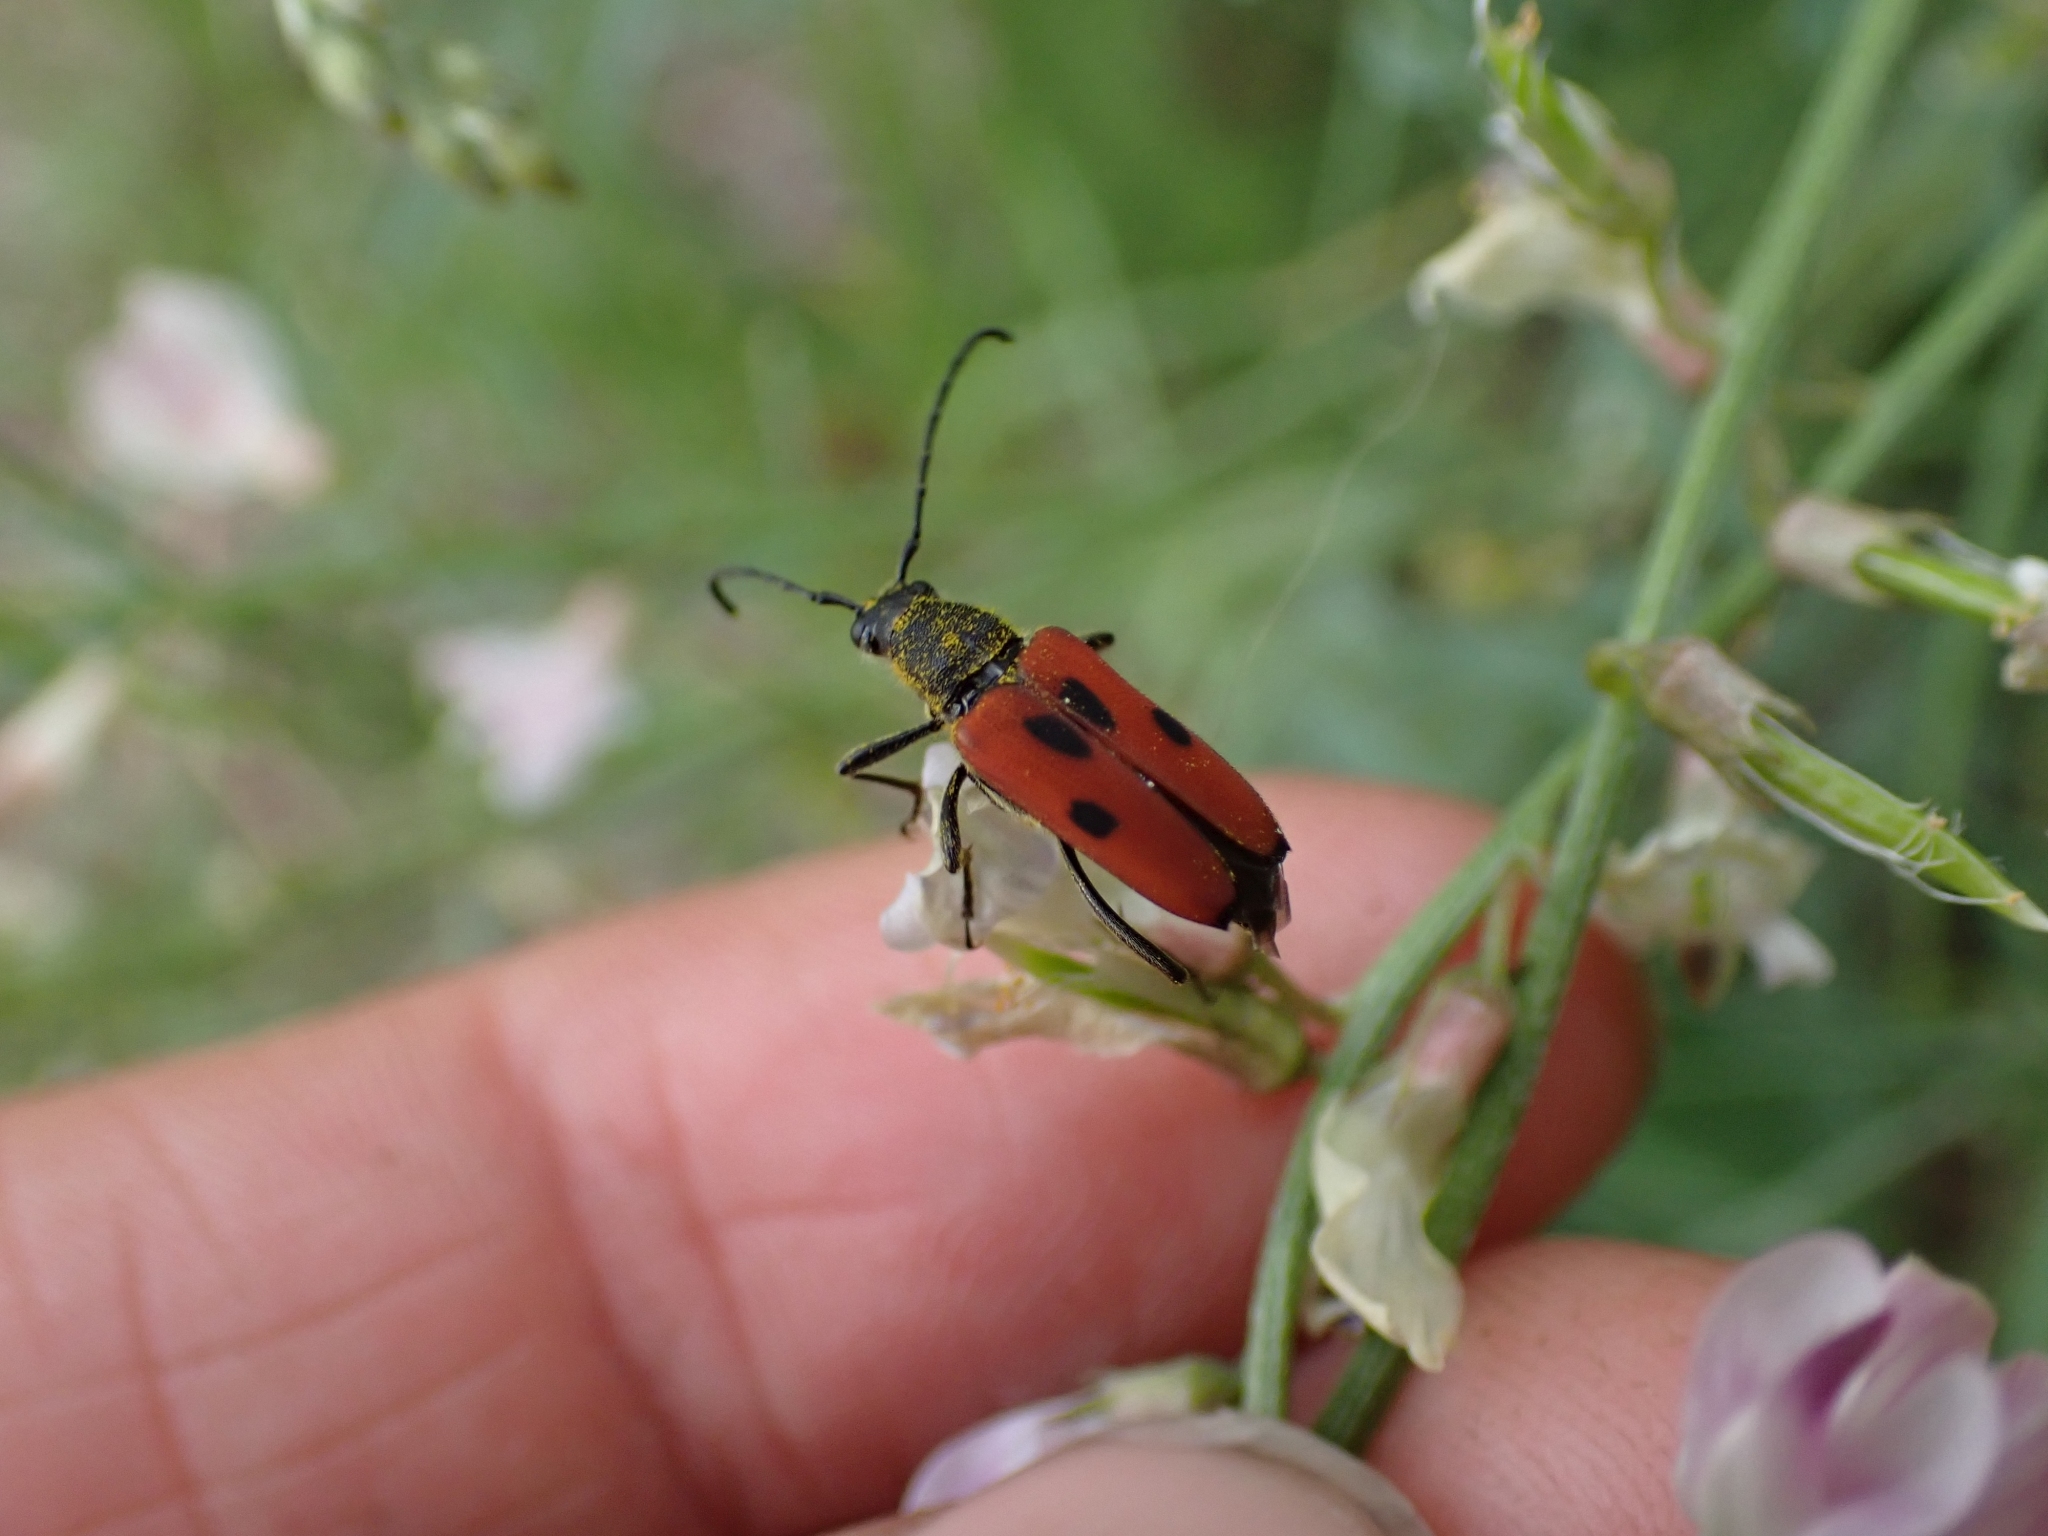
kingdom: Animalia
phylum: Arthropoda
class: Insecta
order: Coleoptera
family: Cerambycidae
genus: Anastrangalia
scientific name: Anastrangalia laetifica
